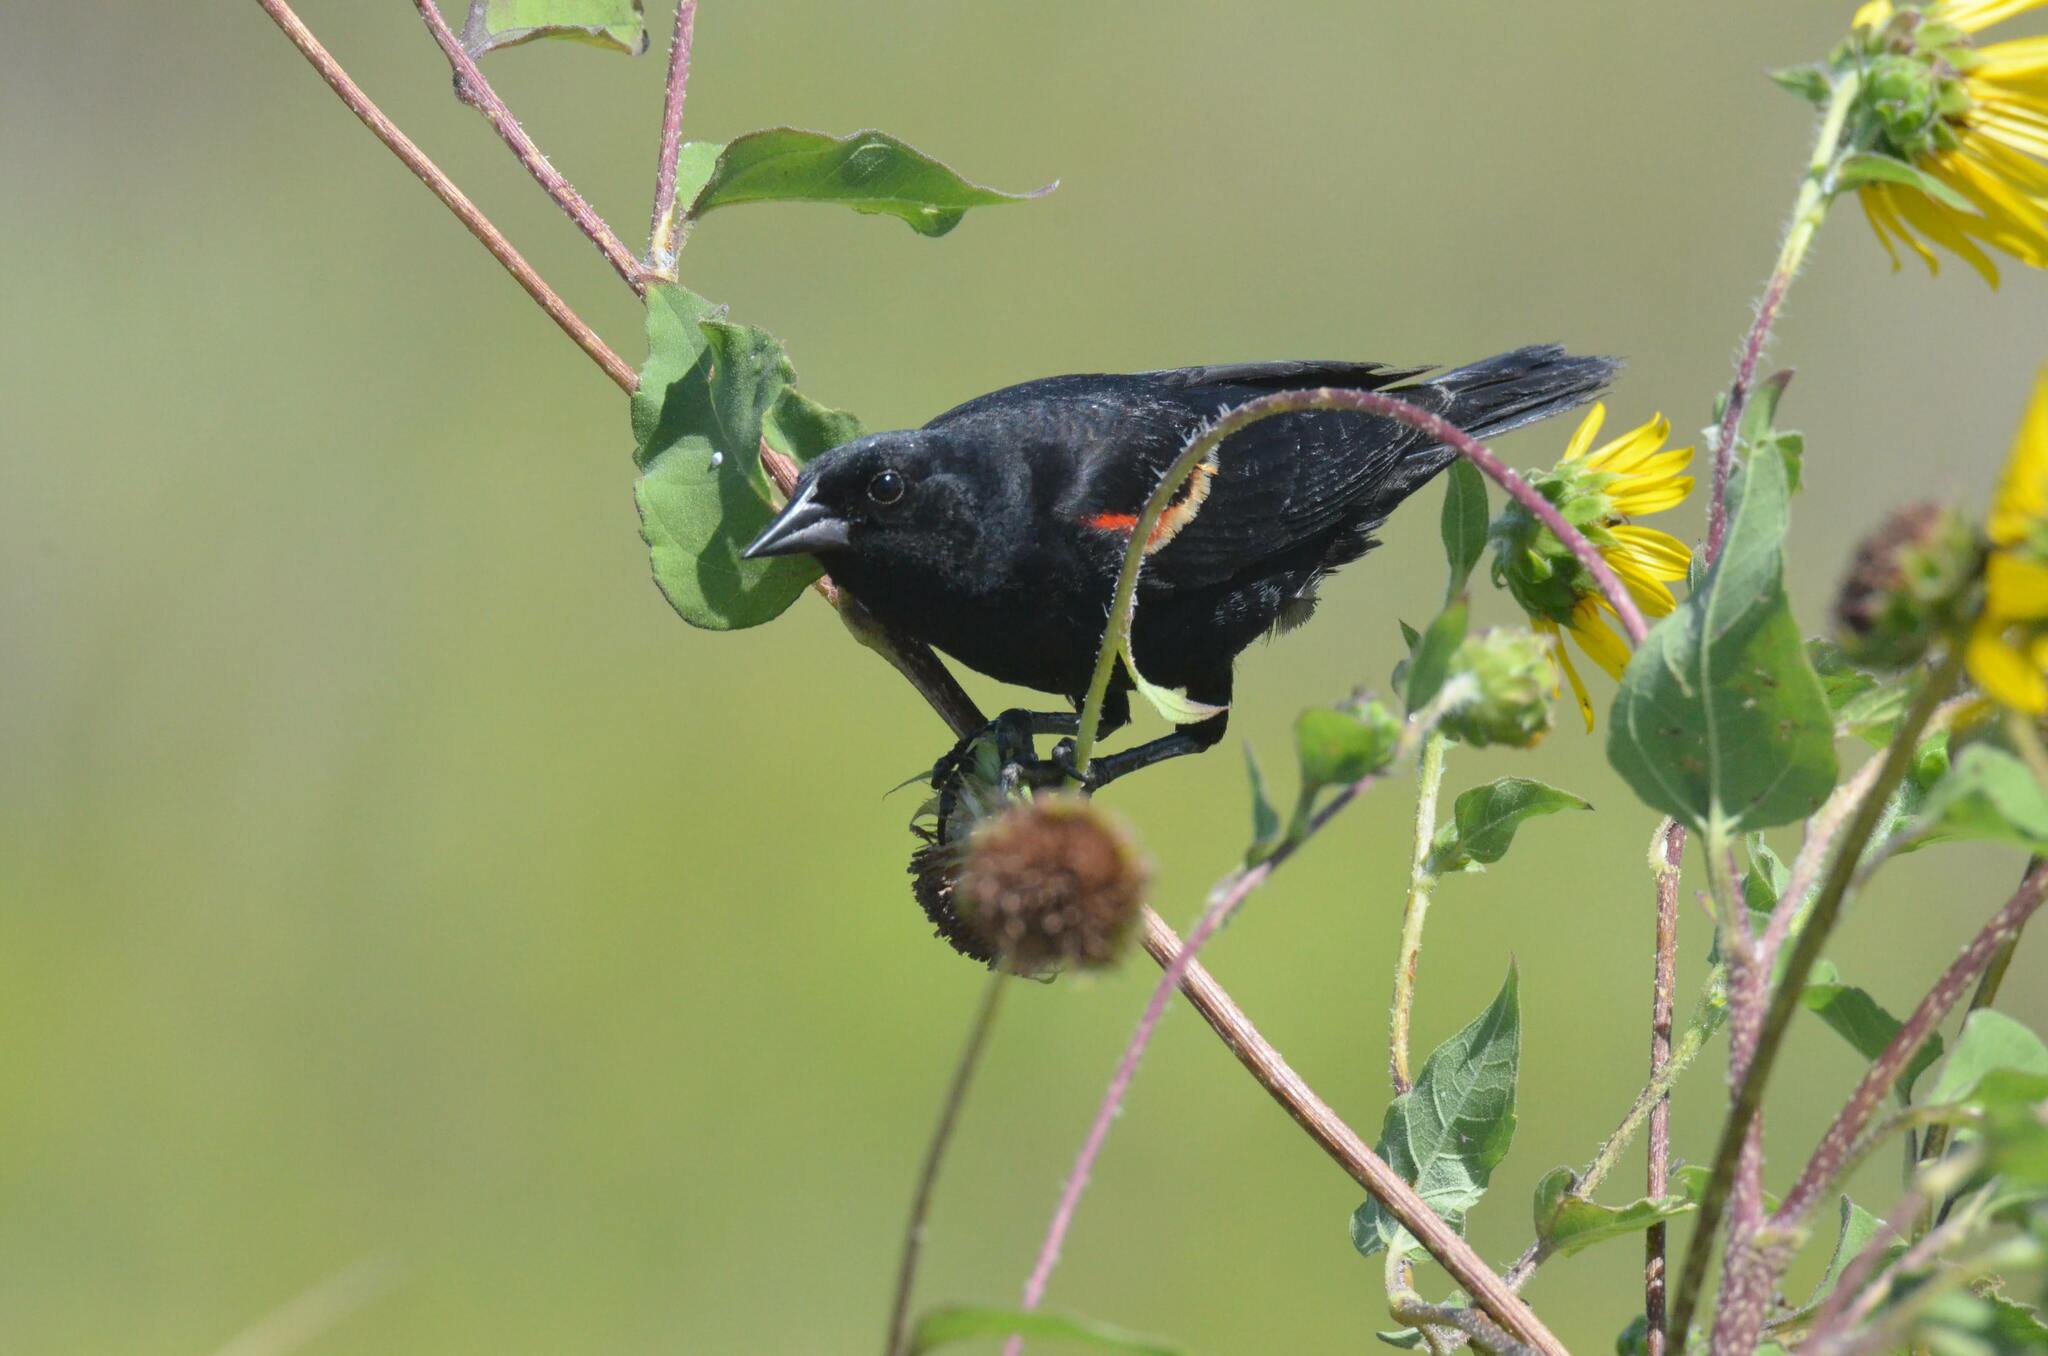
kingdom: Animalia
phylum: Chordata
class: Aves
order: Passeriformes
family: Icteridae
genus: Agelaius
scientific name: Agelaius phoeniceus
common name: Red-winged blackbird
